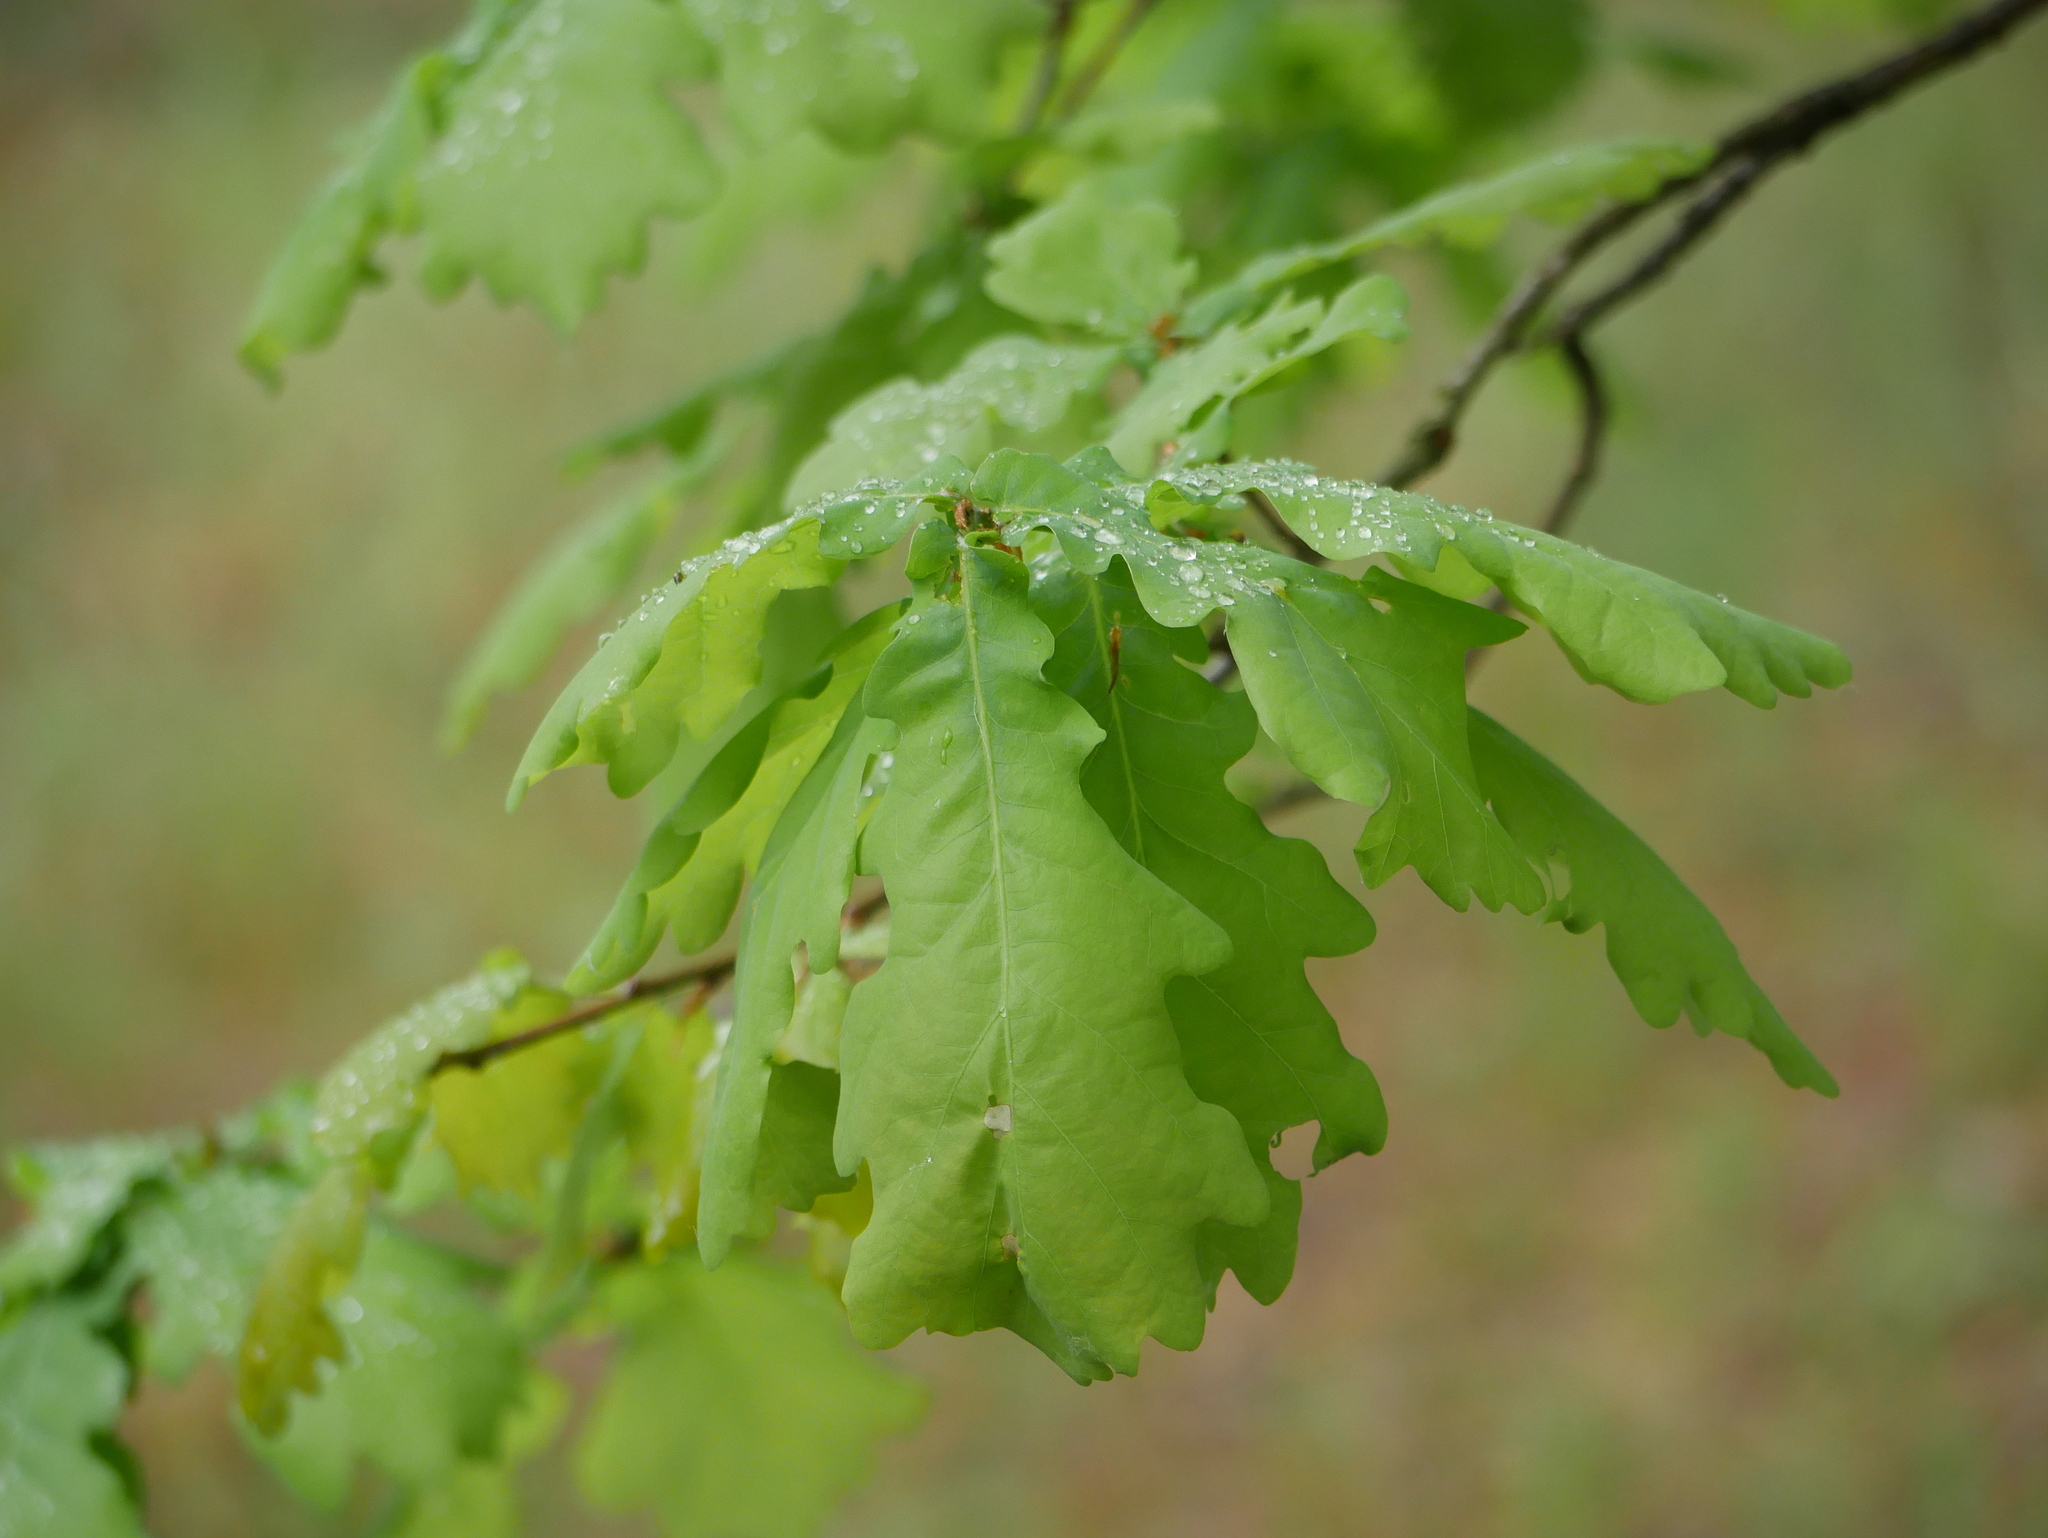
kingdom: Plantae
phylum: Tracheophyta
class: Magnoliopsida
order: Fagales
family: Fagaceae
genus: Quercus
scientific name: Quercus robur
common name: Pedunculate oak
